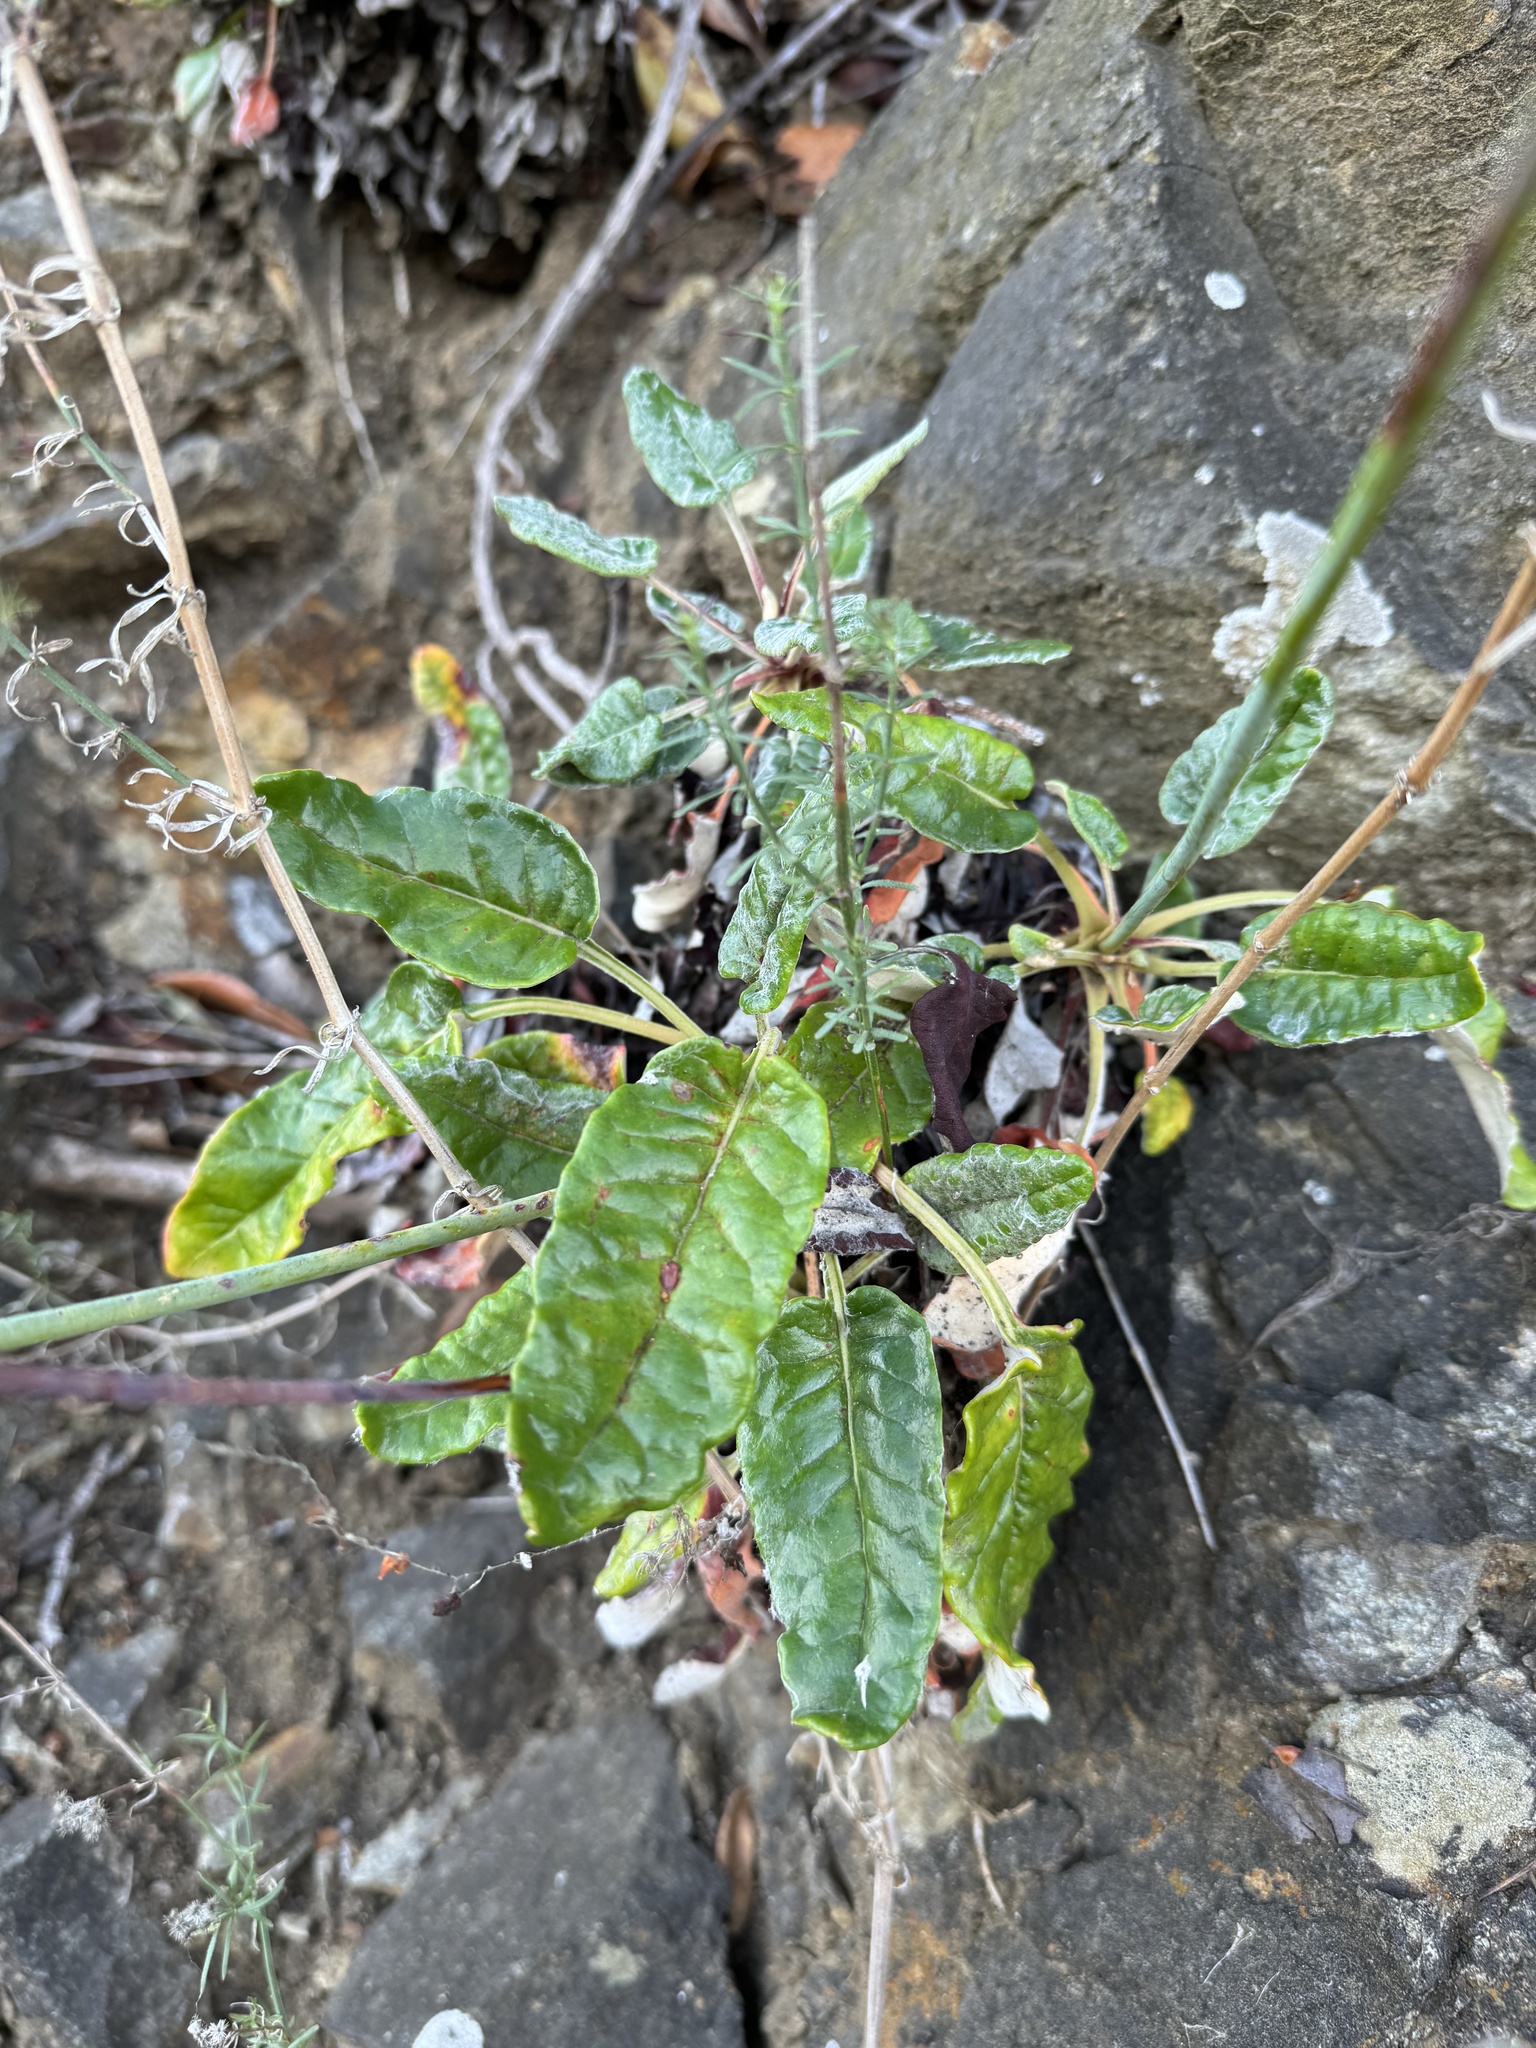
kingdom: Plantae
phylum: Tracheophyta
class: Magnoliopsida
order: Caryophyllales
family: Polygonaceae
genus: Eriogonum
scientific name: Eriogonum grande
